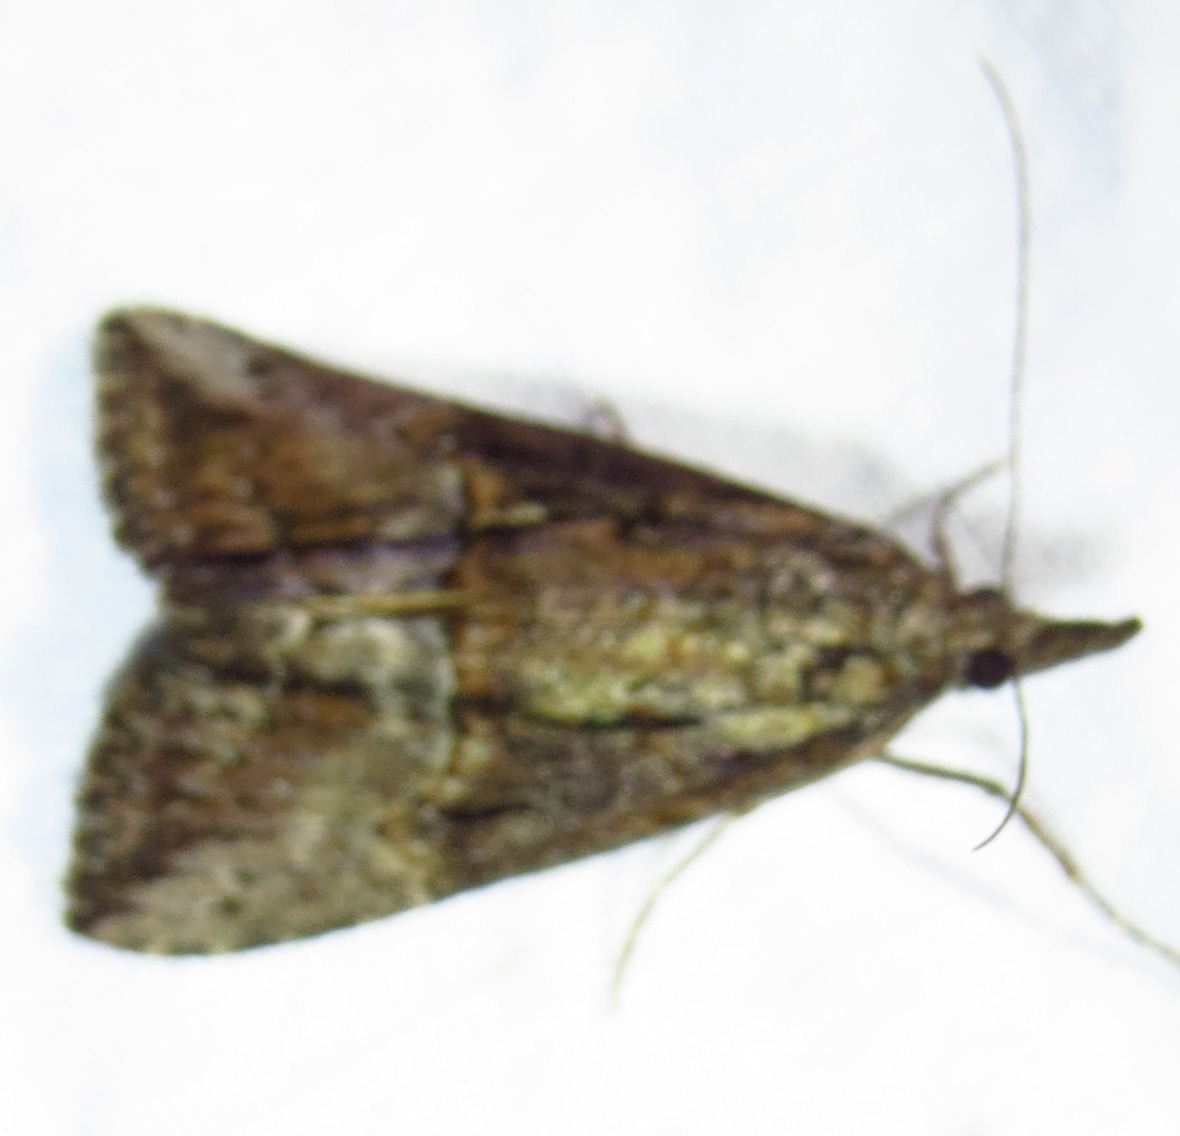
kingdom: Animalia
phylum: Arthropoda
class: Insecta
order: Lepidoptera
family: Erebidae
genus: Hypena
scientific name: Hypena scabra
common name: Green cloverworm
